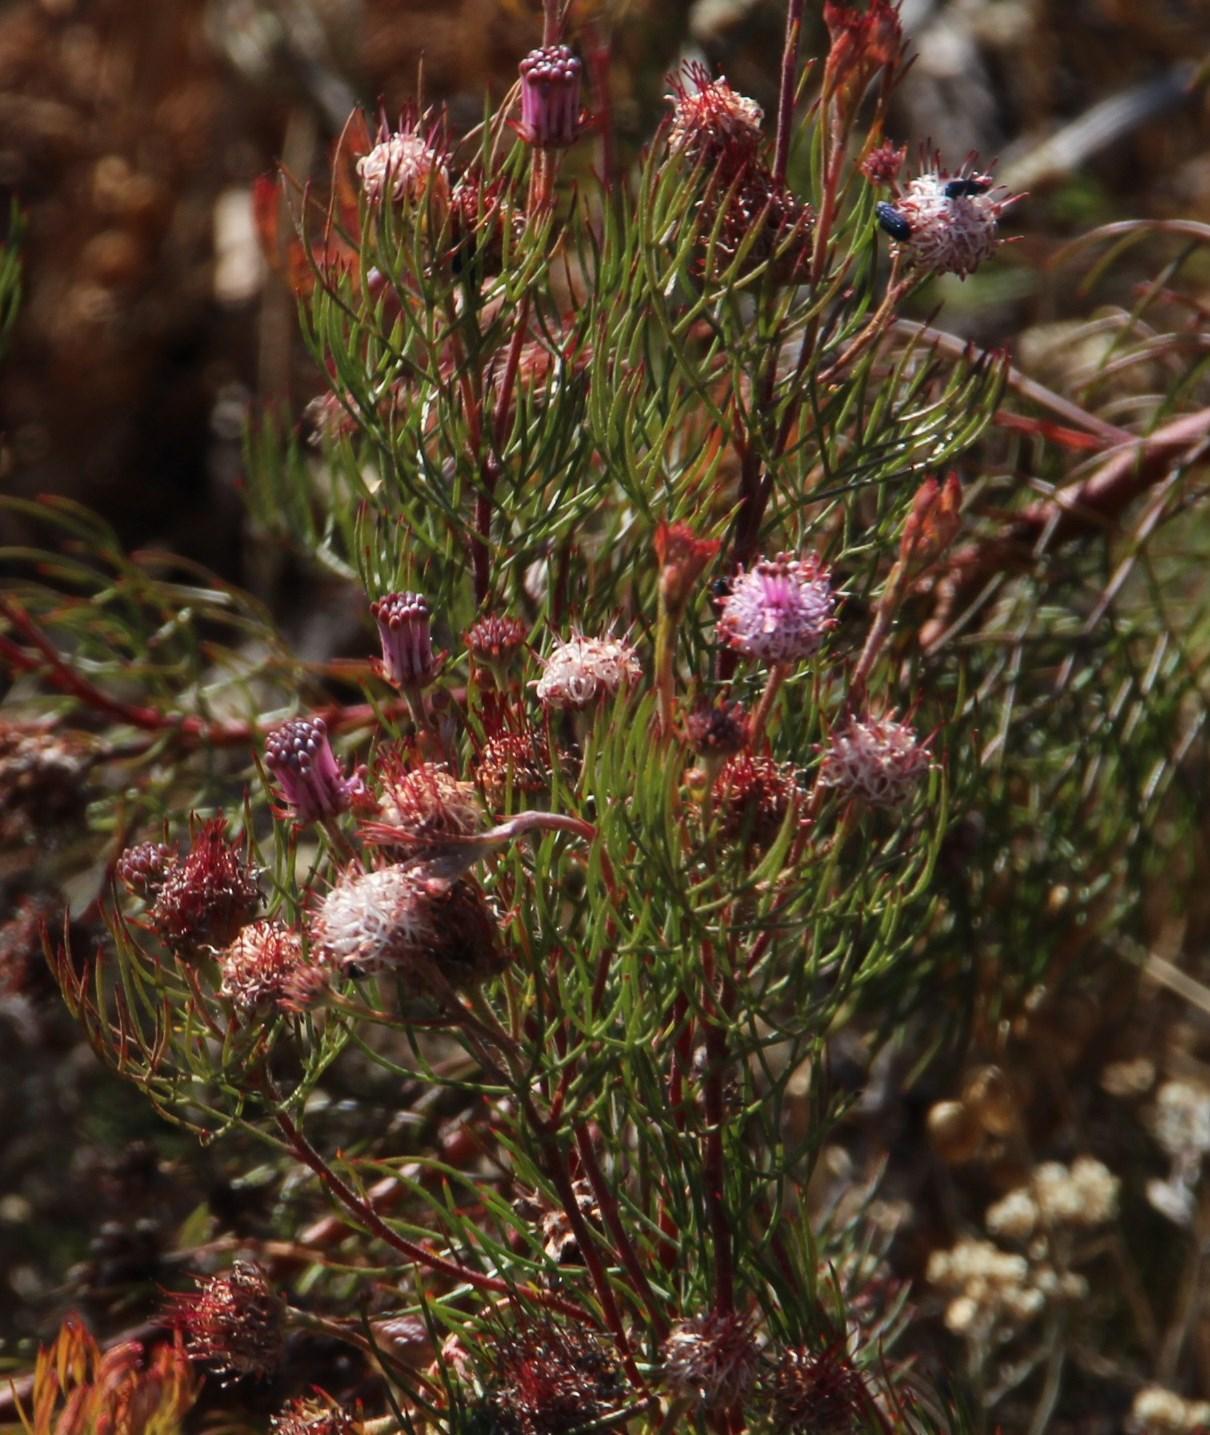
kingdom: Plantae
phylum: Tracheophyta
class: Magnoliopsida
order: Proteales
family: Proteaceae
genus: Serruria
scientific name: Serruria fasciflora
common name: Common pin spiderhead
